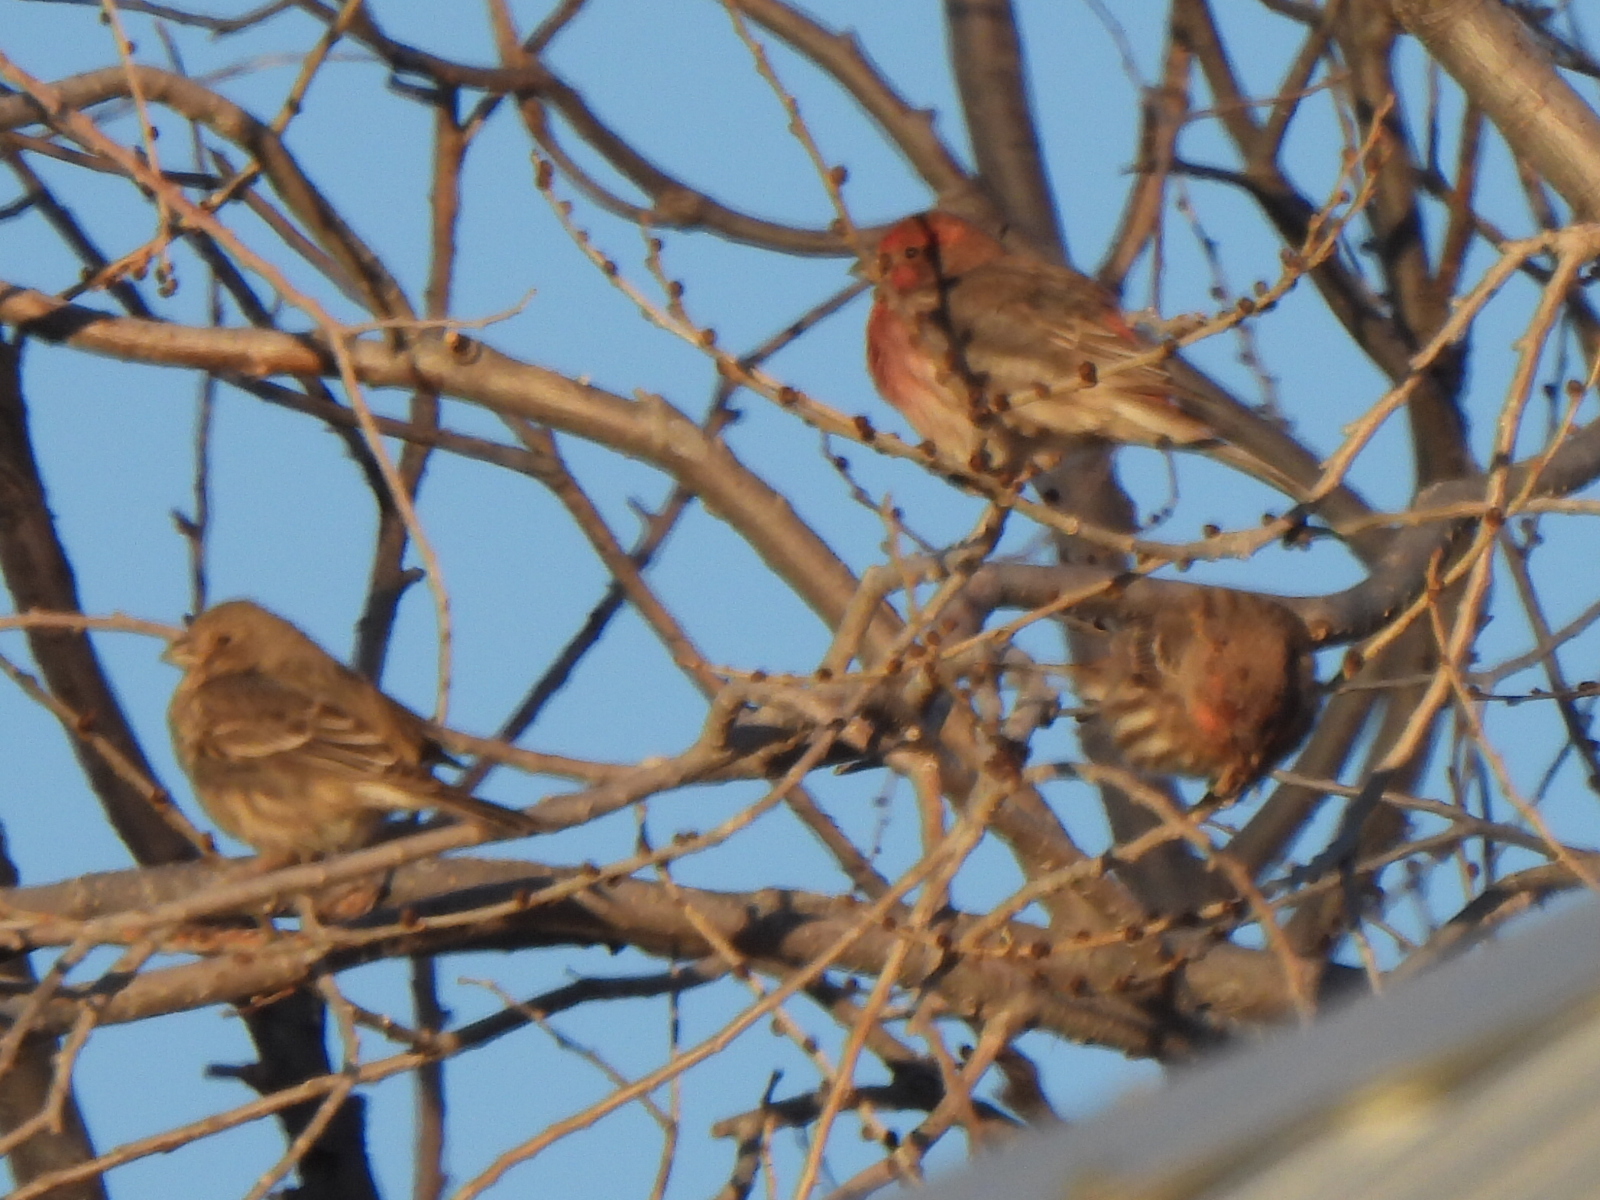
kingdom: Animalia
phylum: Chordata
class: Aves
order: Passeriformes
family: Fringillidae
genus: Haemorhous
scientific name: Haemorhous mexicanus
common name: House finch
